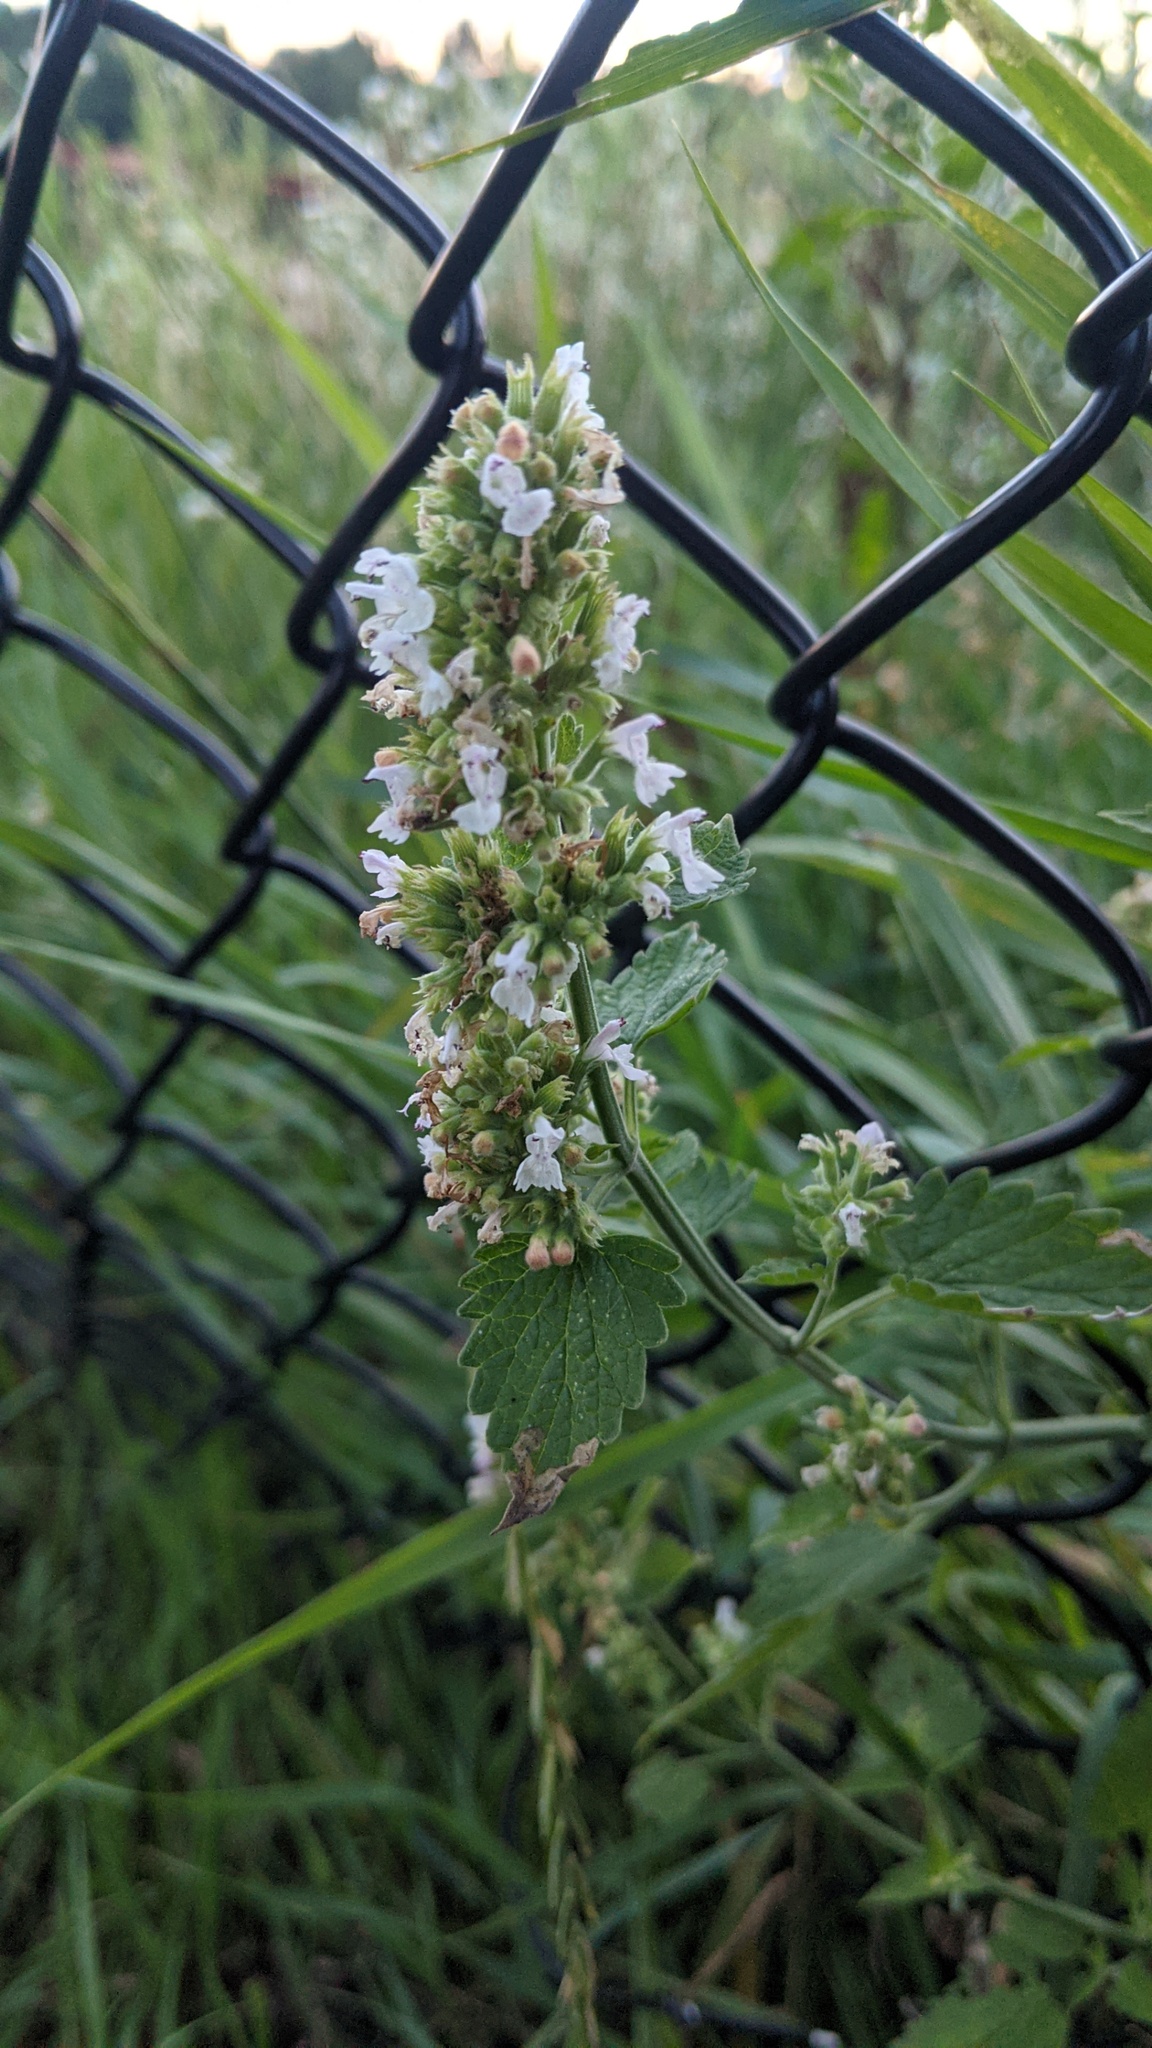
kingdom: Plantae
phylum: Tracheophyta
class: Magnoliopsida
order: Lamiales
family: Lamiaceae
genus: Nepeta
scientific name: Nepeta cataria
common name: Catnip
